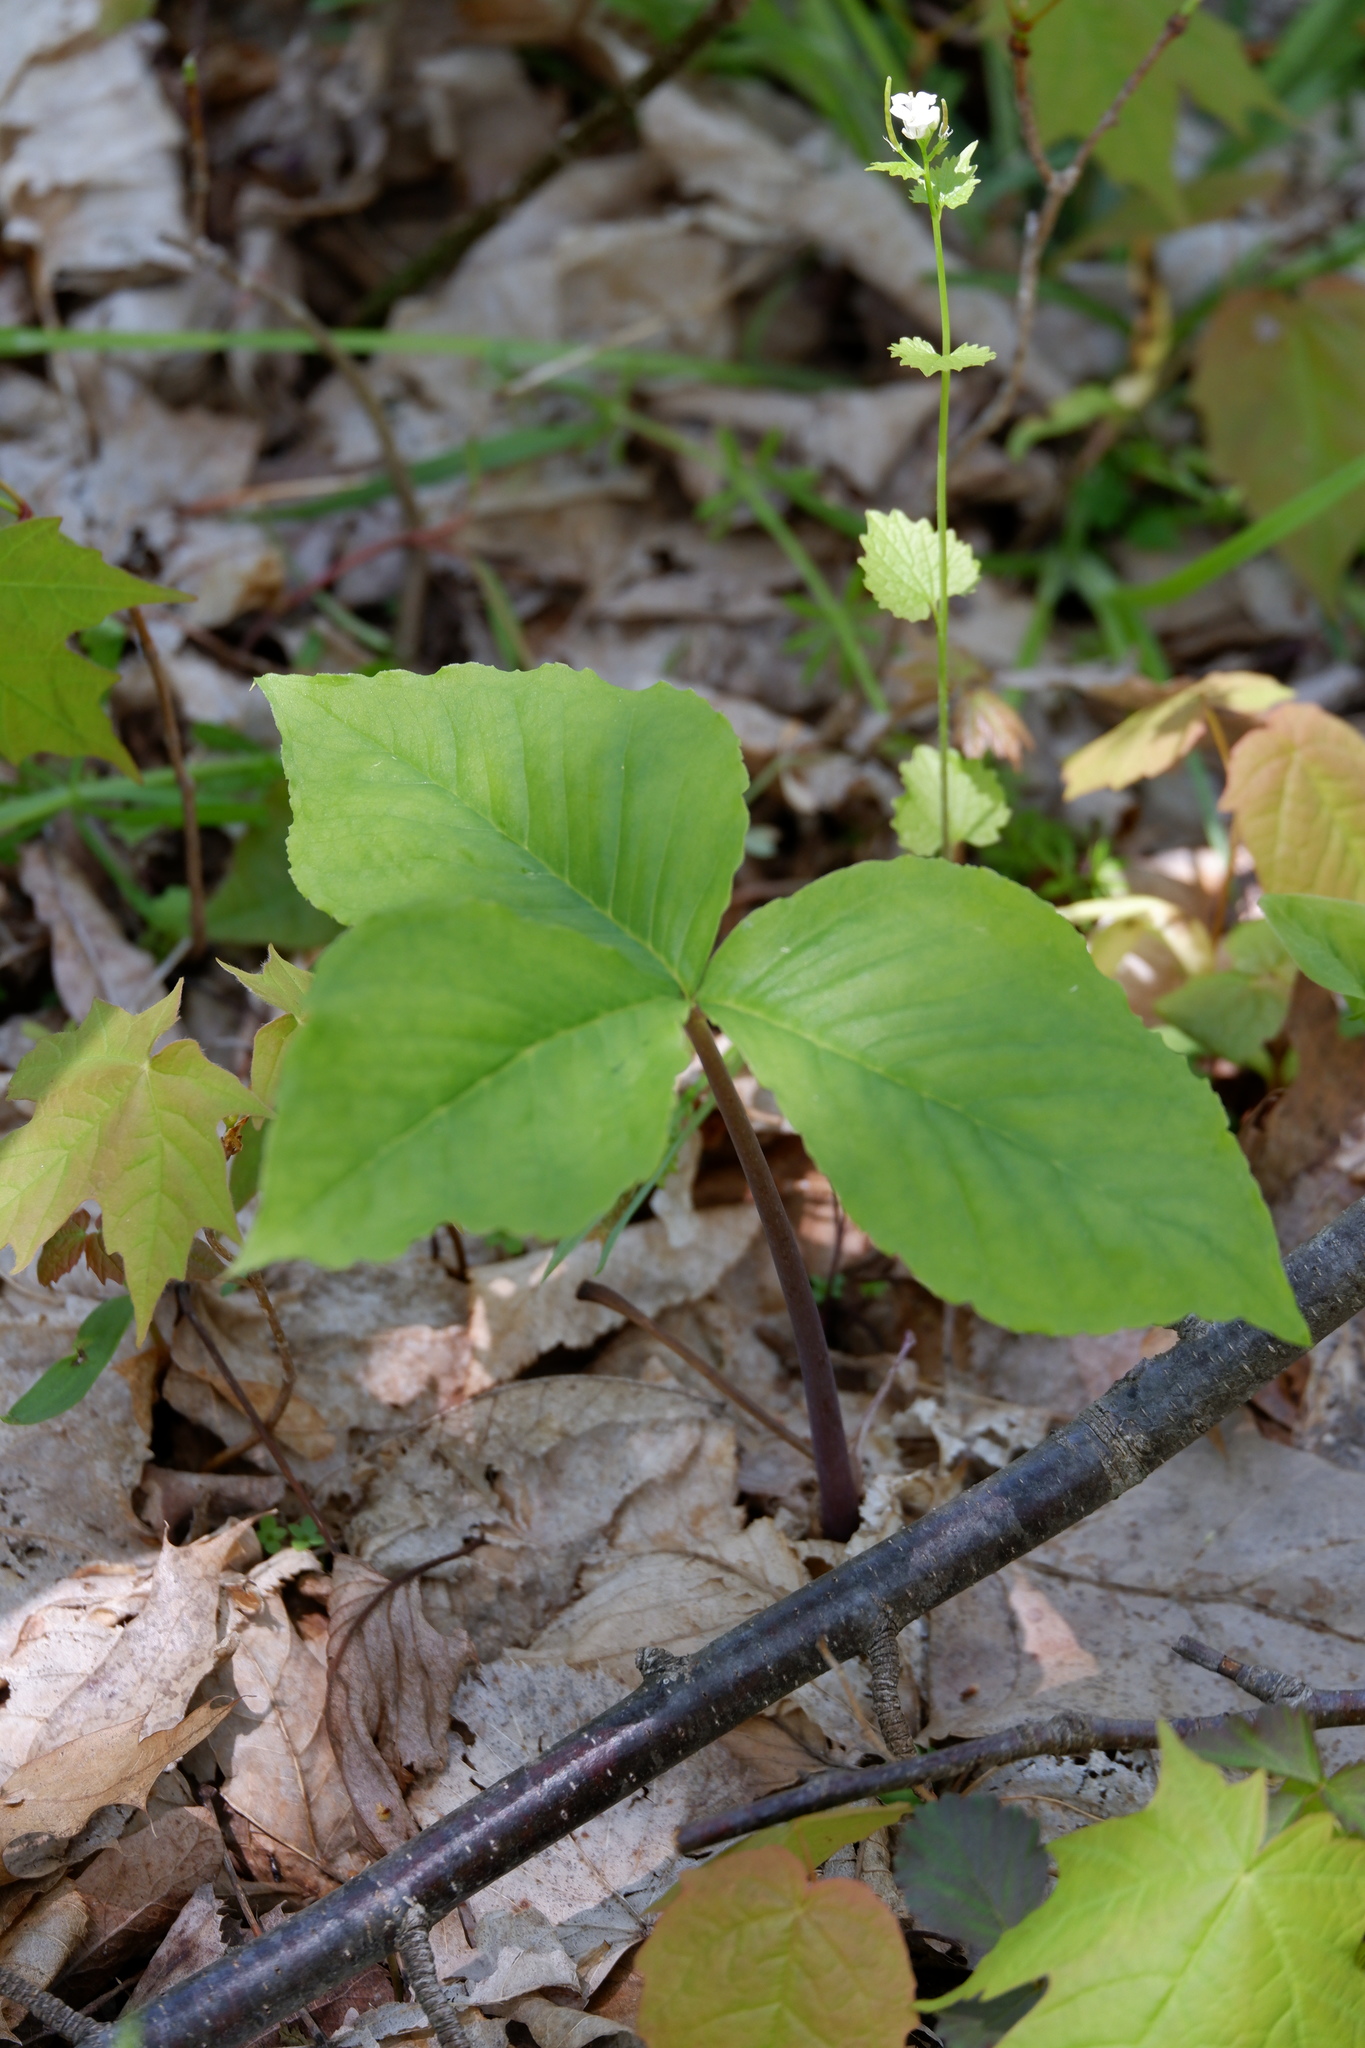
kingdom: Plantae
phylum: Tracheophyta
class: Liliopsida
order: Alismatales
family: Araceae
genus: Arisaema
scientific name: Arisaema triphyllum
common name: Jack-in-the-pulpit
